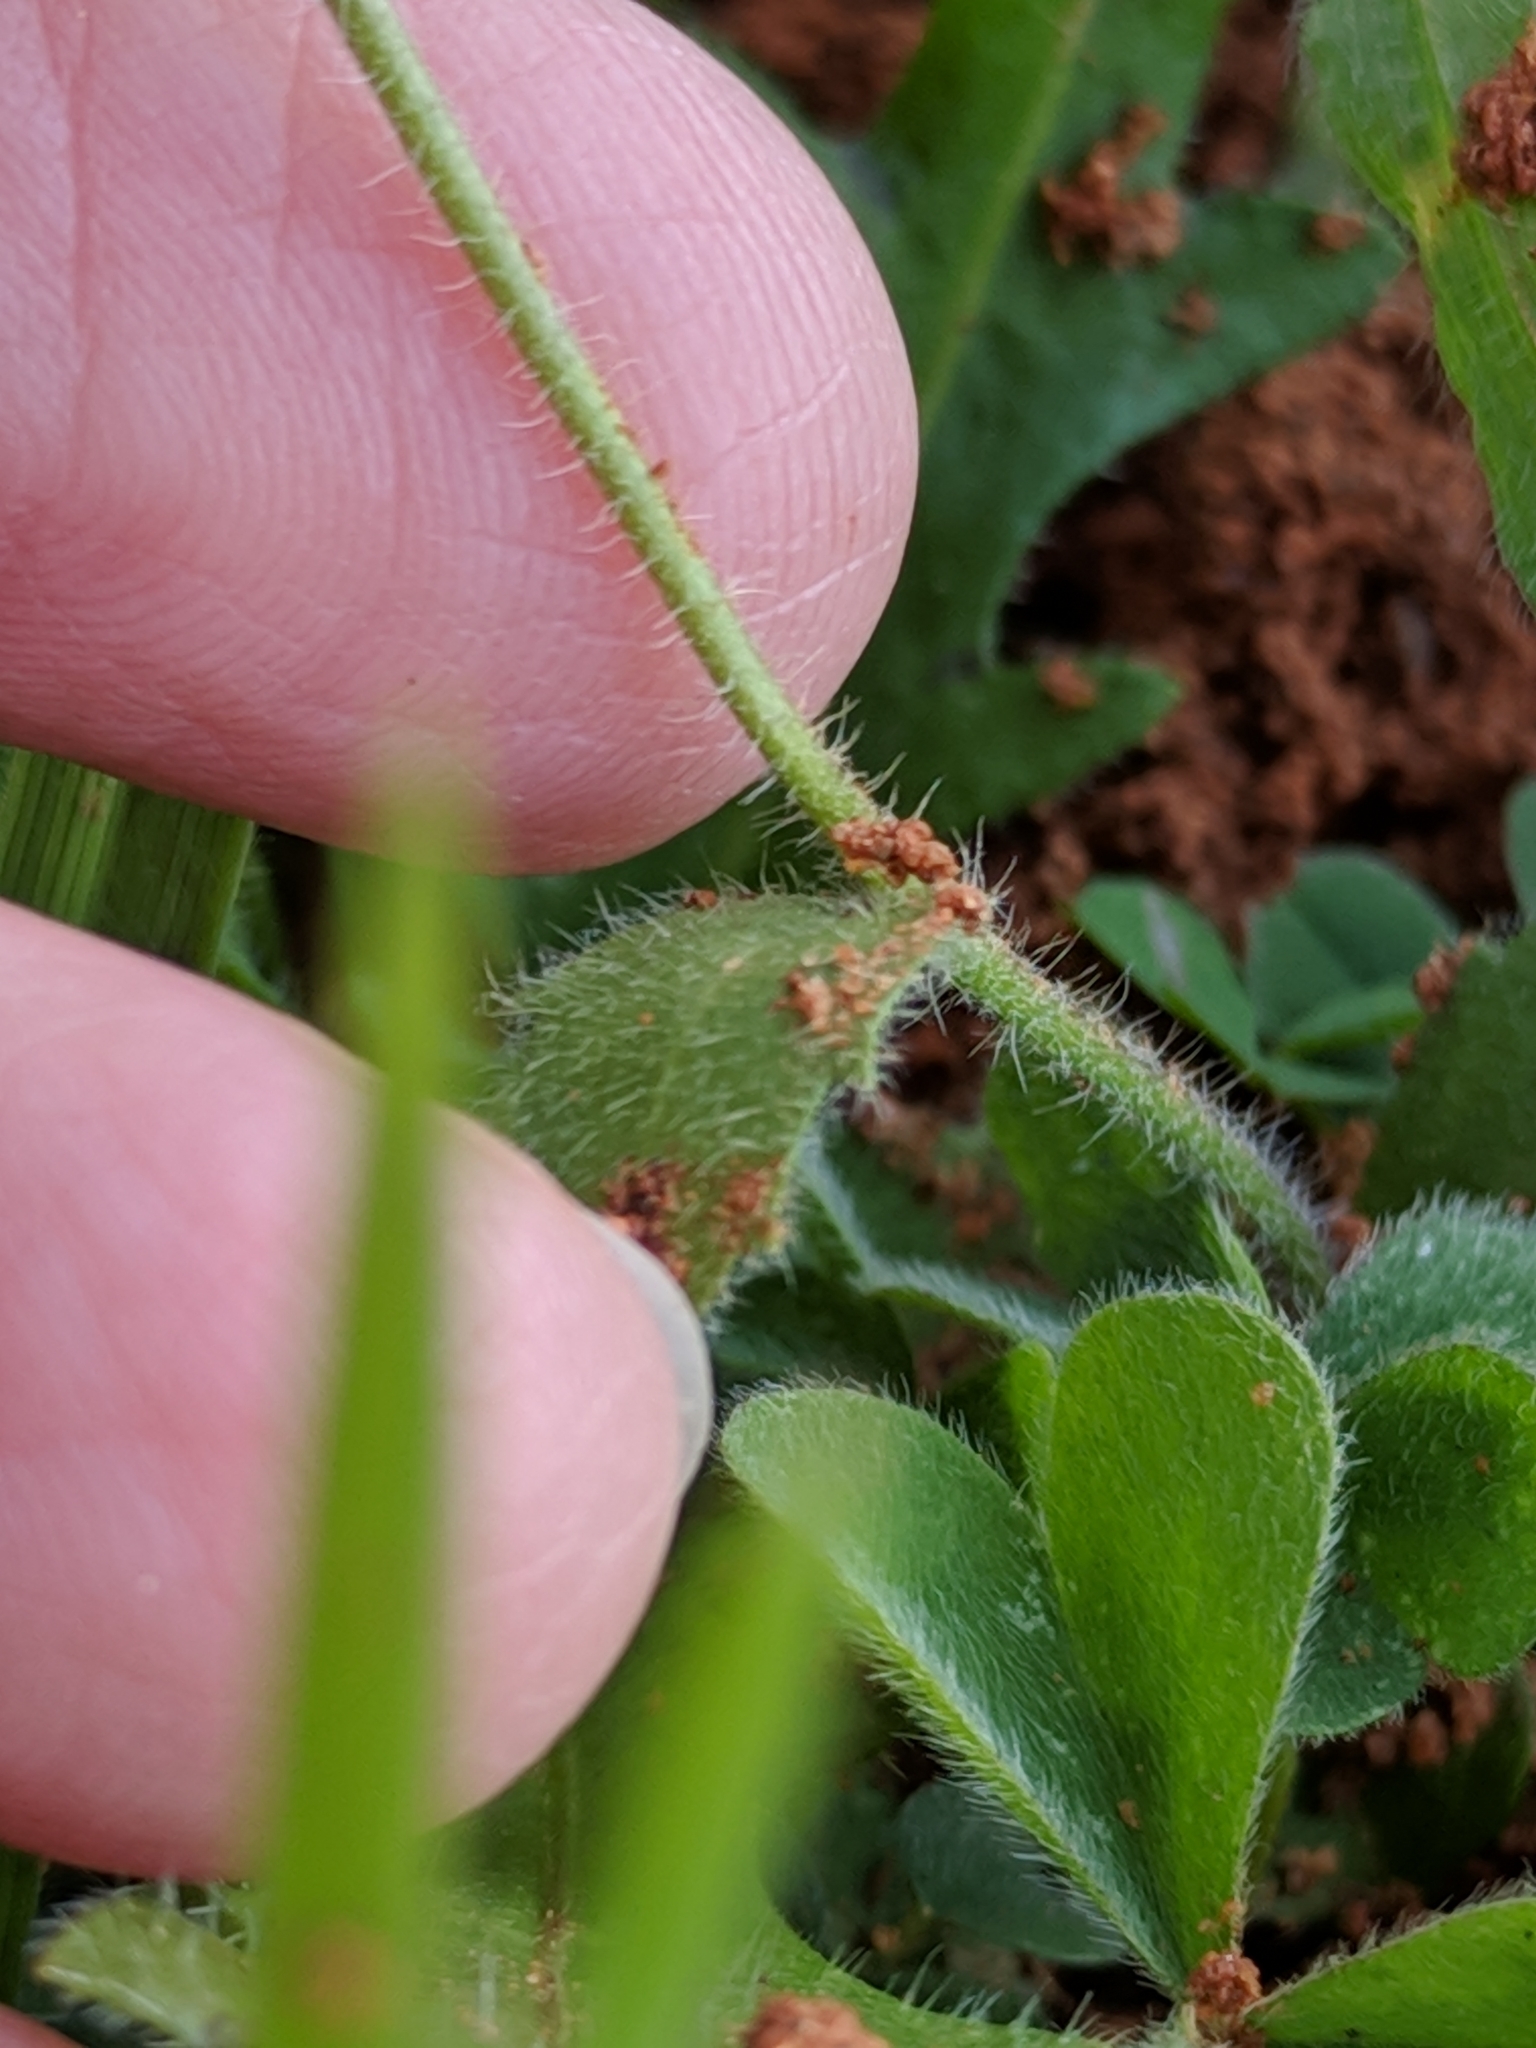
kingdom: Plantae
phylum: Tracheophyta
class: Magnoliopsida
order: Brassicales
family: Brassicaceae
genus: Tomostima
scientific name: Tomostima platycarpa
